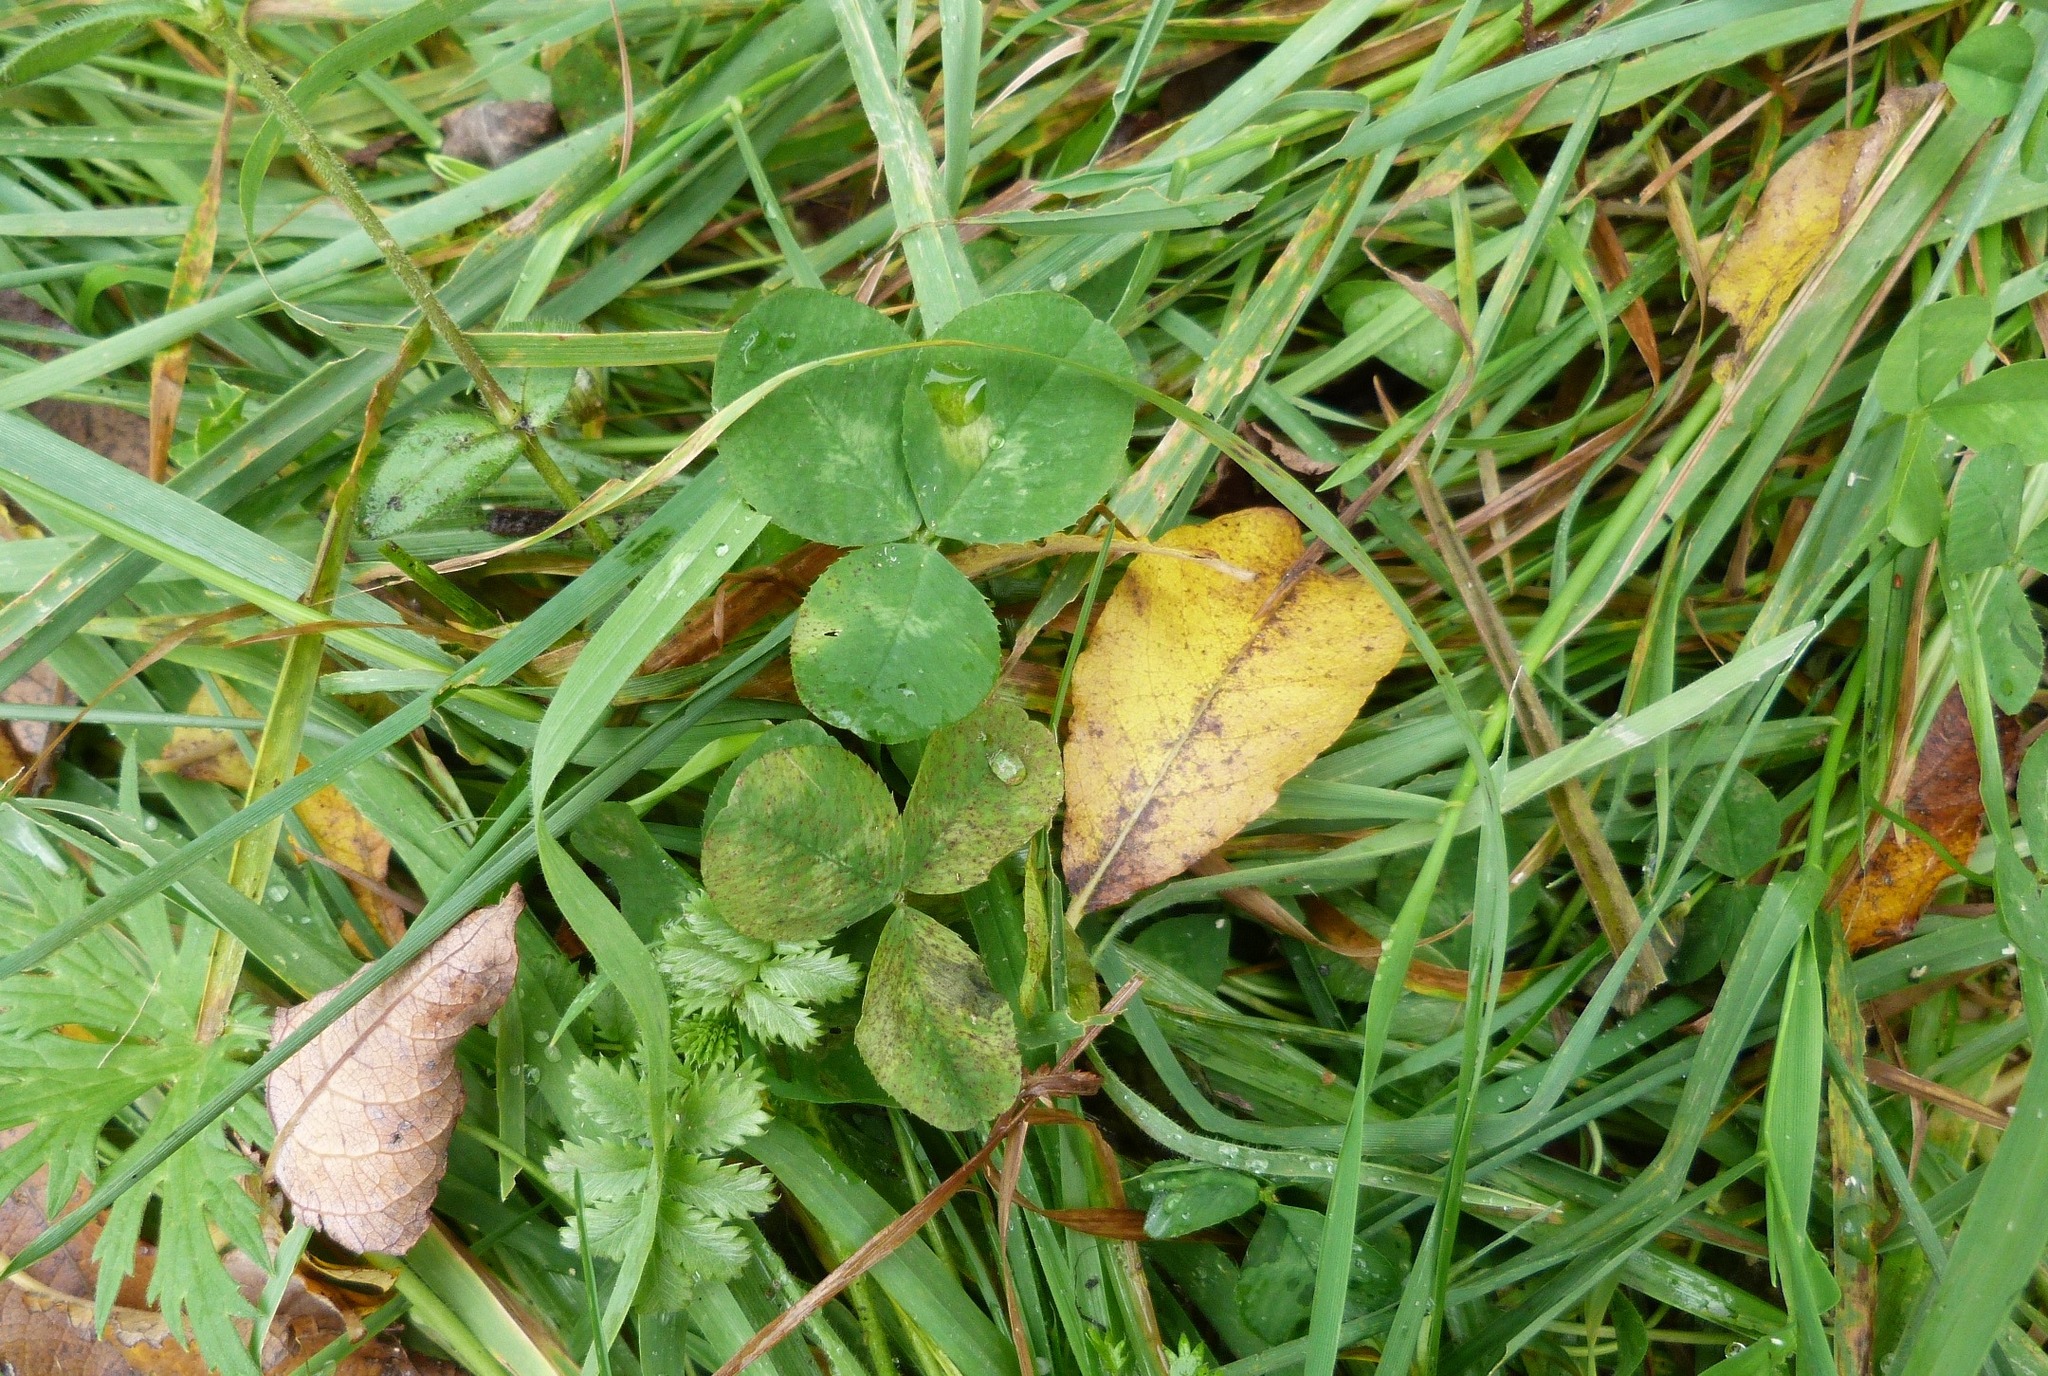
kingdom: Plantae
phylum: Tracheophyta
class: Magnoliopsida
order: Fabales
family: Fabaceae
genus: Trifolium
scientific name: Trifolium repens
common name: White clover
